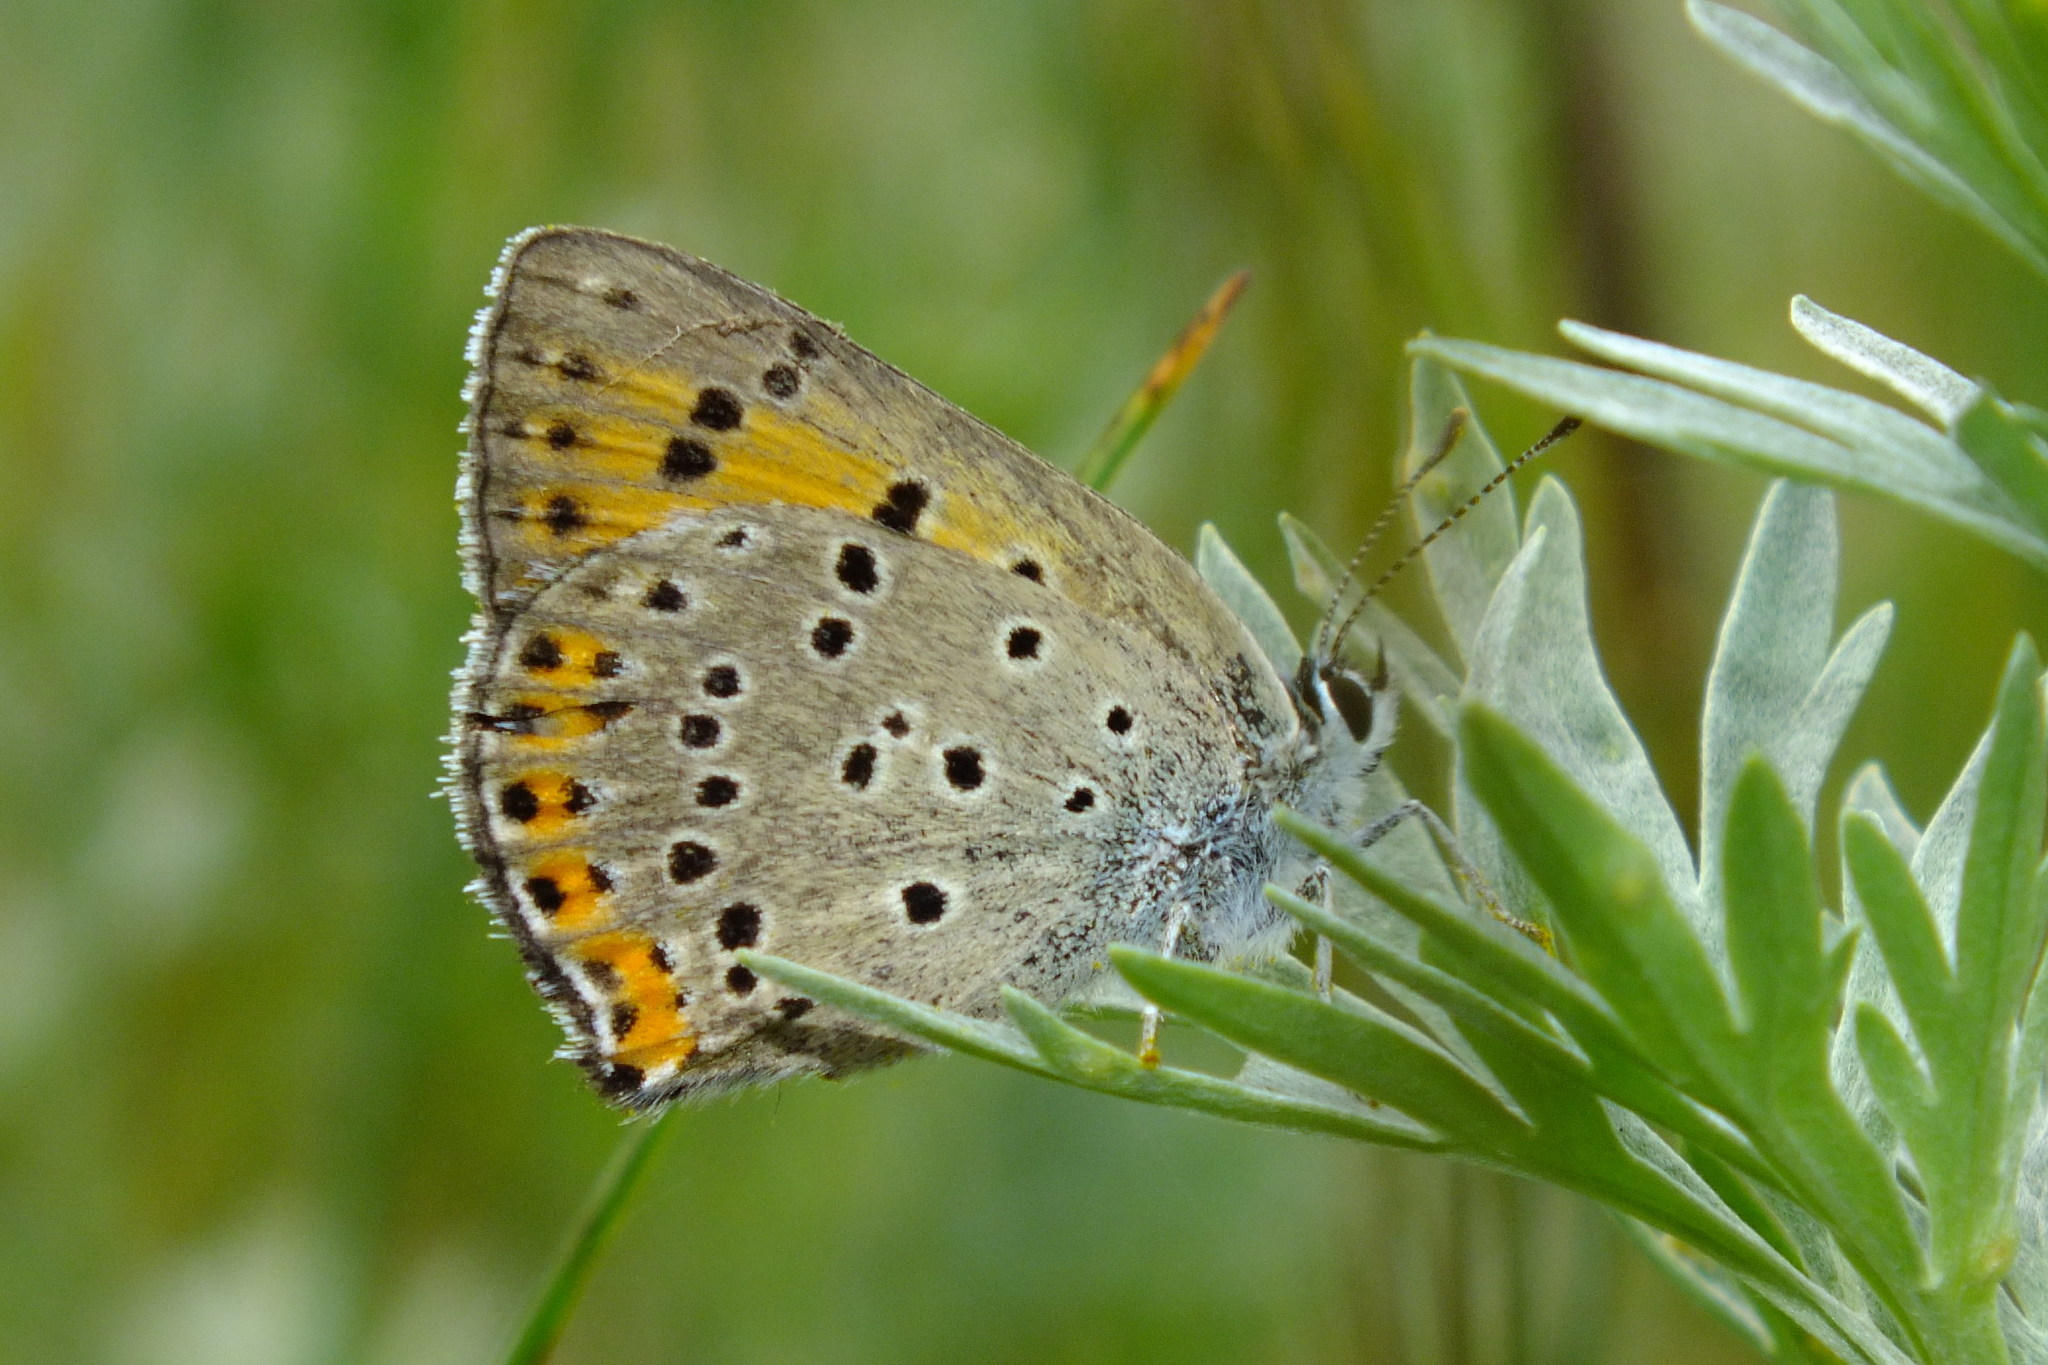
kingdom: Animalia
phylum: Arthropoda
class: Insecta
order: Lepidoptera
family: Lycaenidae
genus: Lycaena
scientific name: Lycaena alciphron
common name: Purple-shot copper
